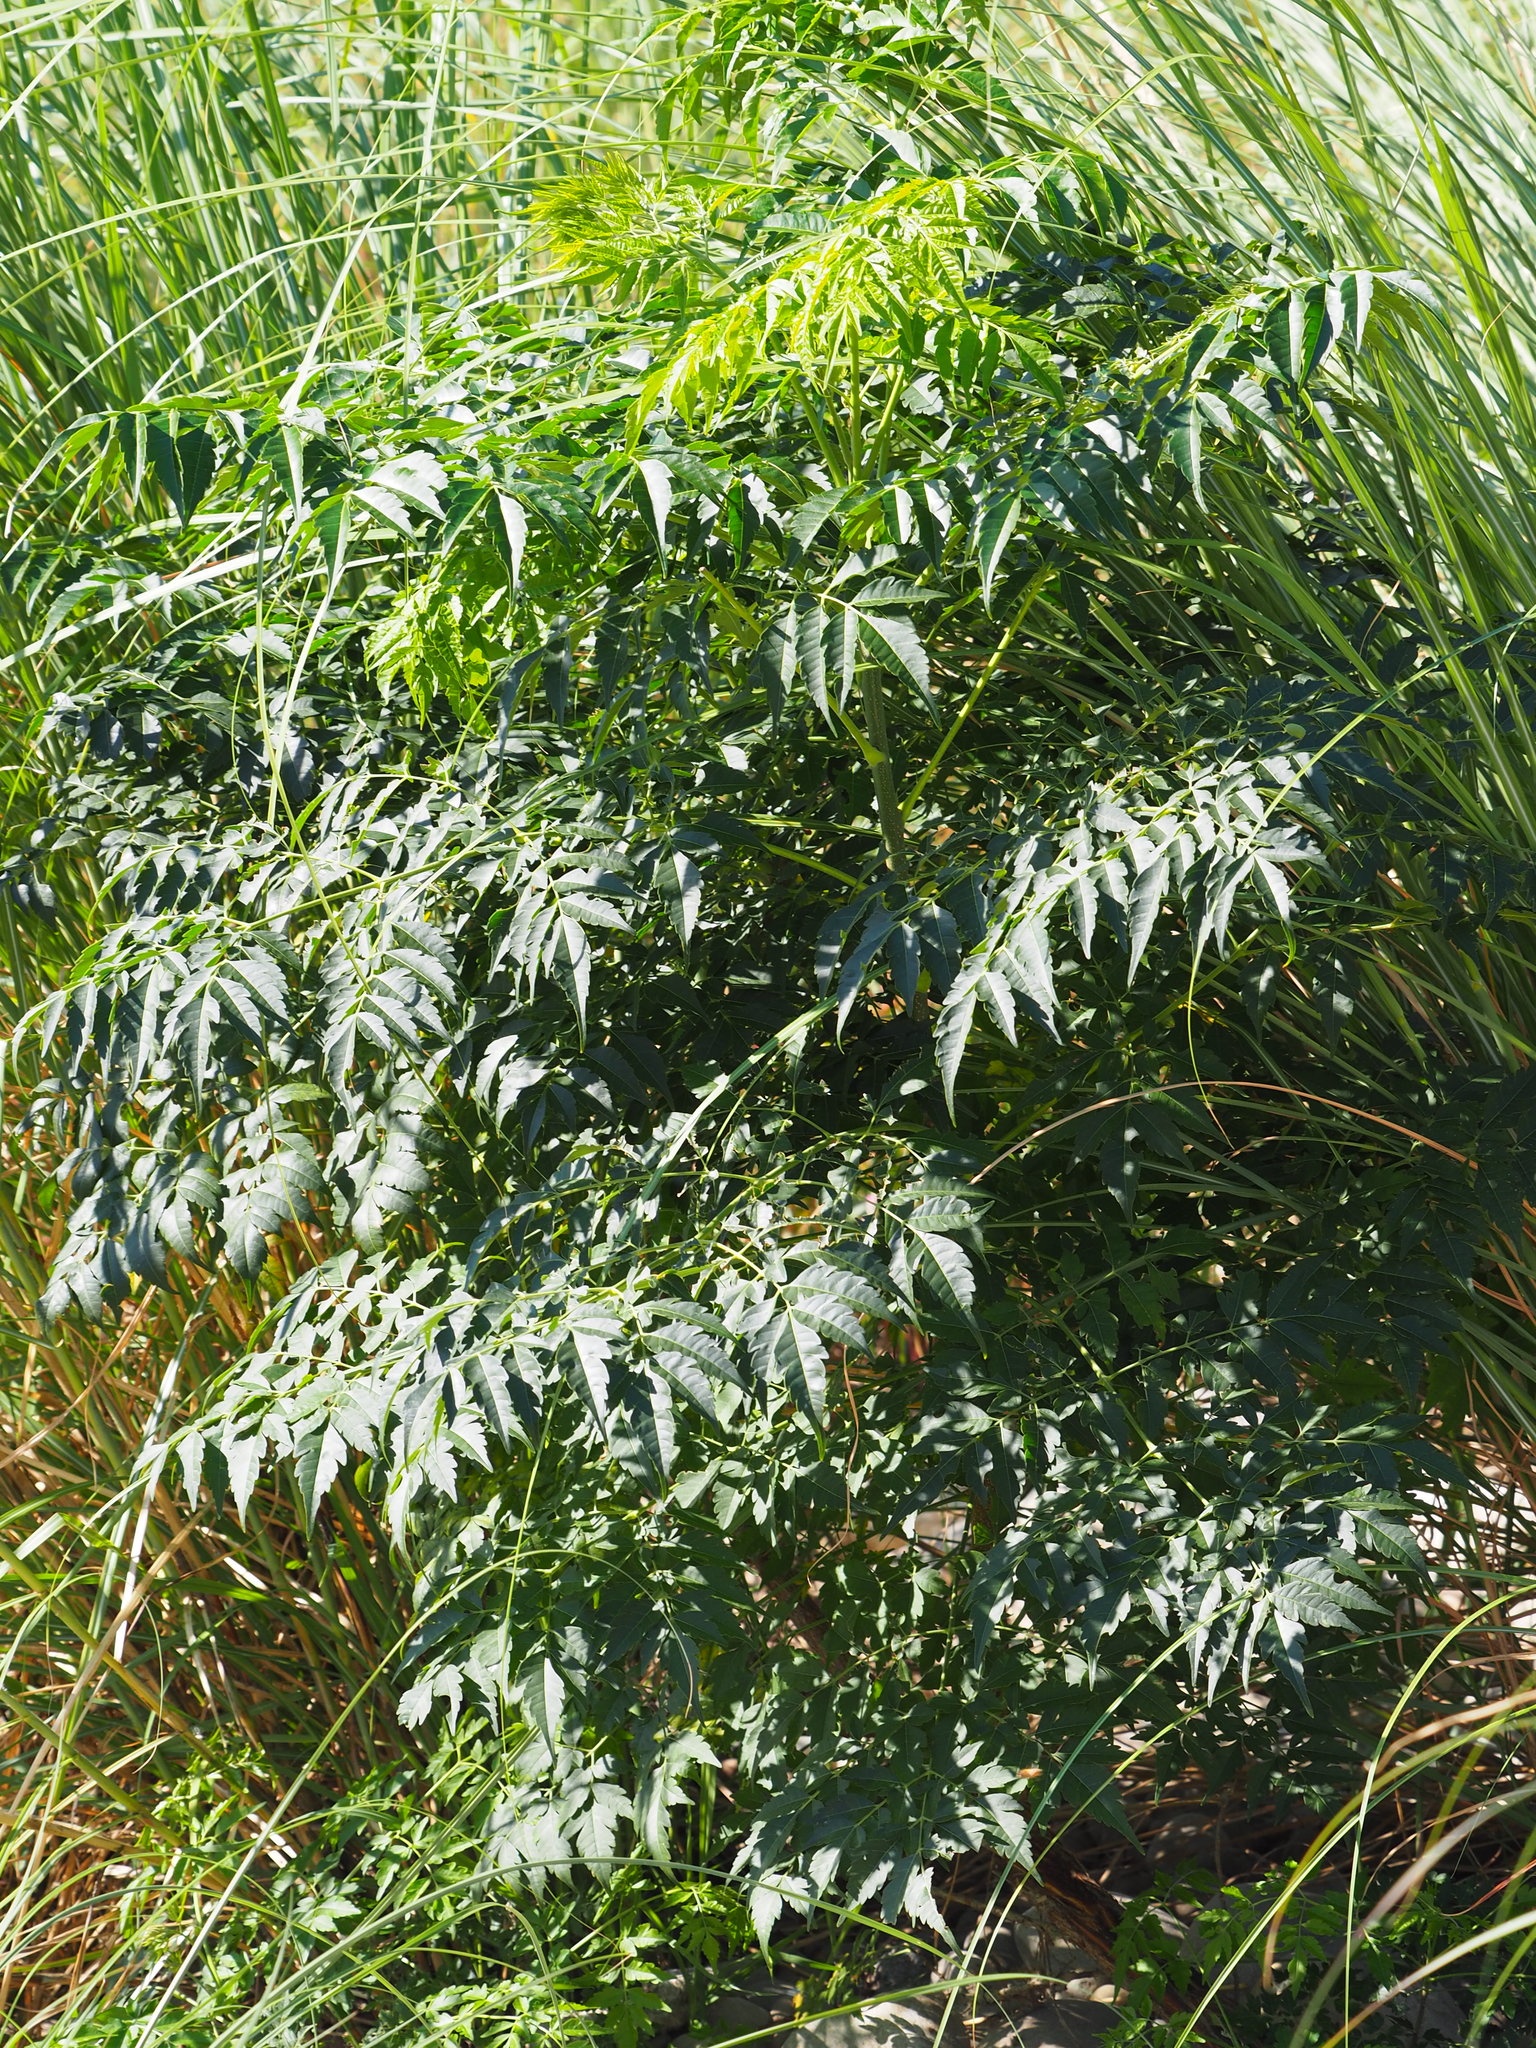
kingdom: Plantae
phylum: Tracheophyta
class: Magnoliopsida
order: Sapindales
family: Meliaceae
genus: Melia
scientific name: Melia azedarach
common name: Chinaberrytree
